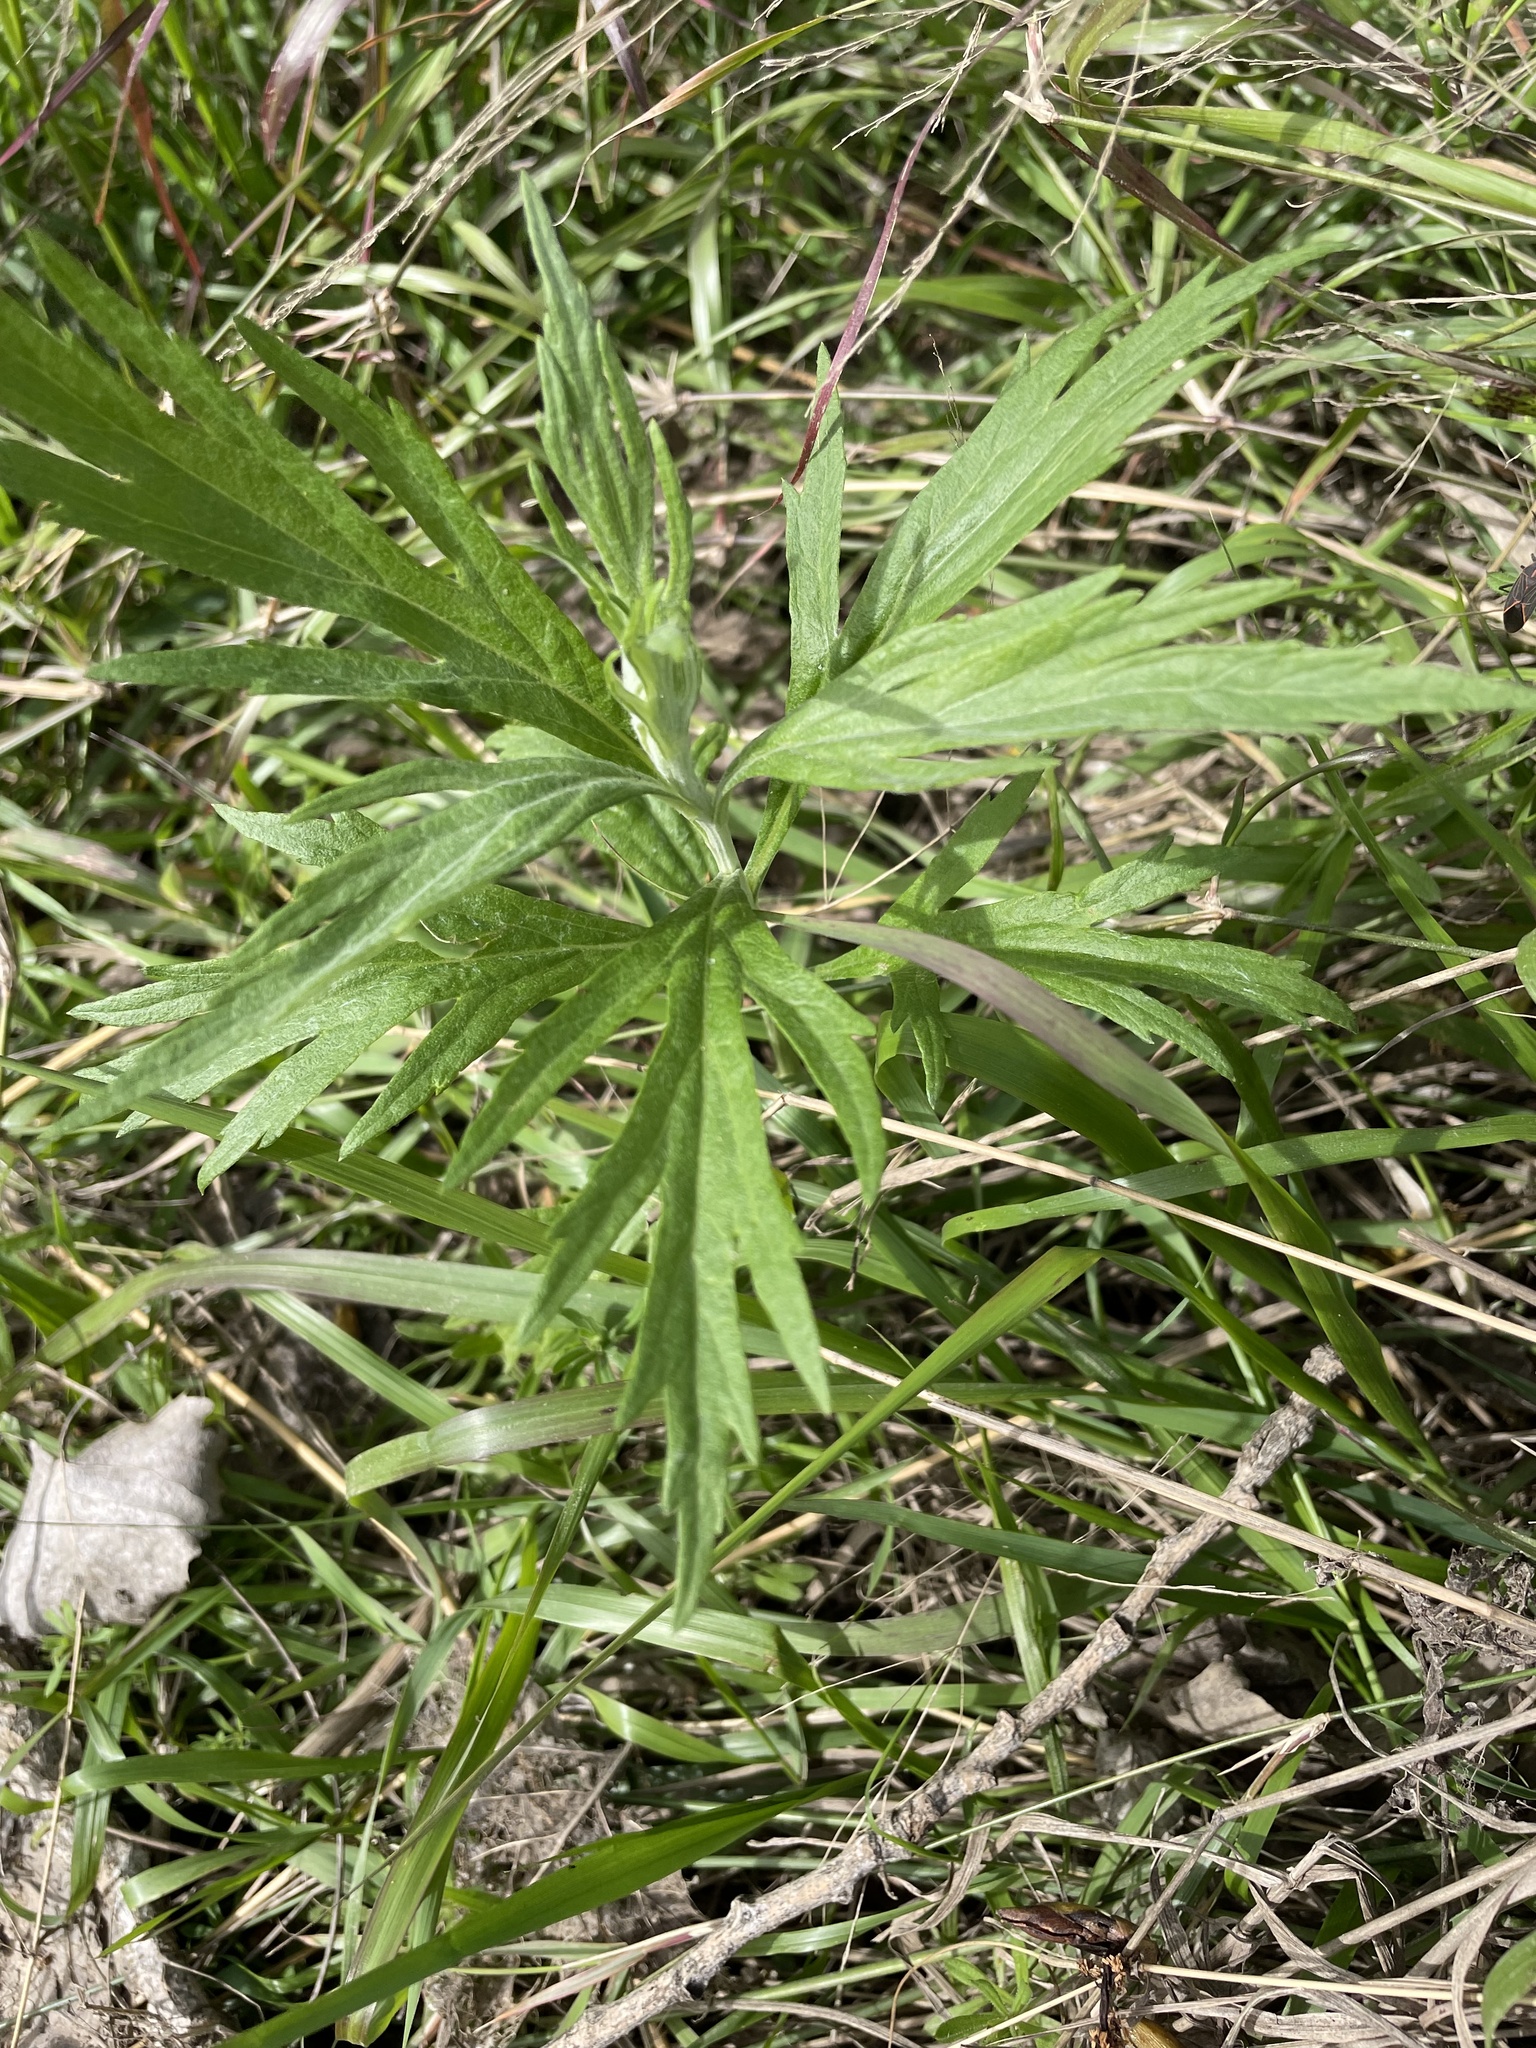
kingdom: Plantae
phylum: Tracheophyta
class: Magnoliopsida
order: Asterales
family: Asteraceae
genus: Artemisia
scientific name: Artemisia douglasiana
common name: Northwest mugwort
